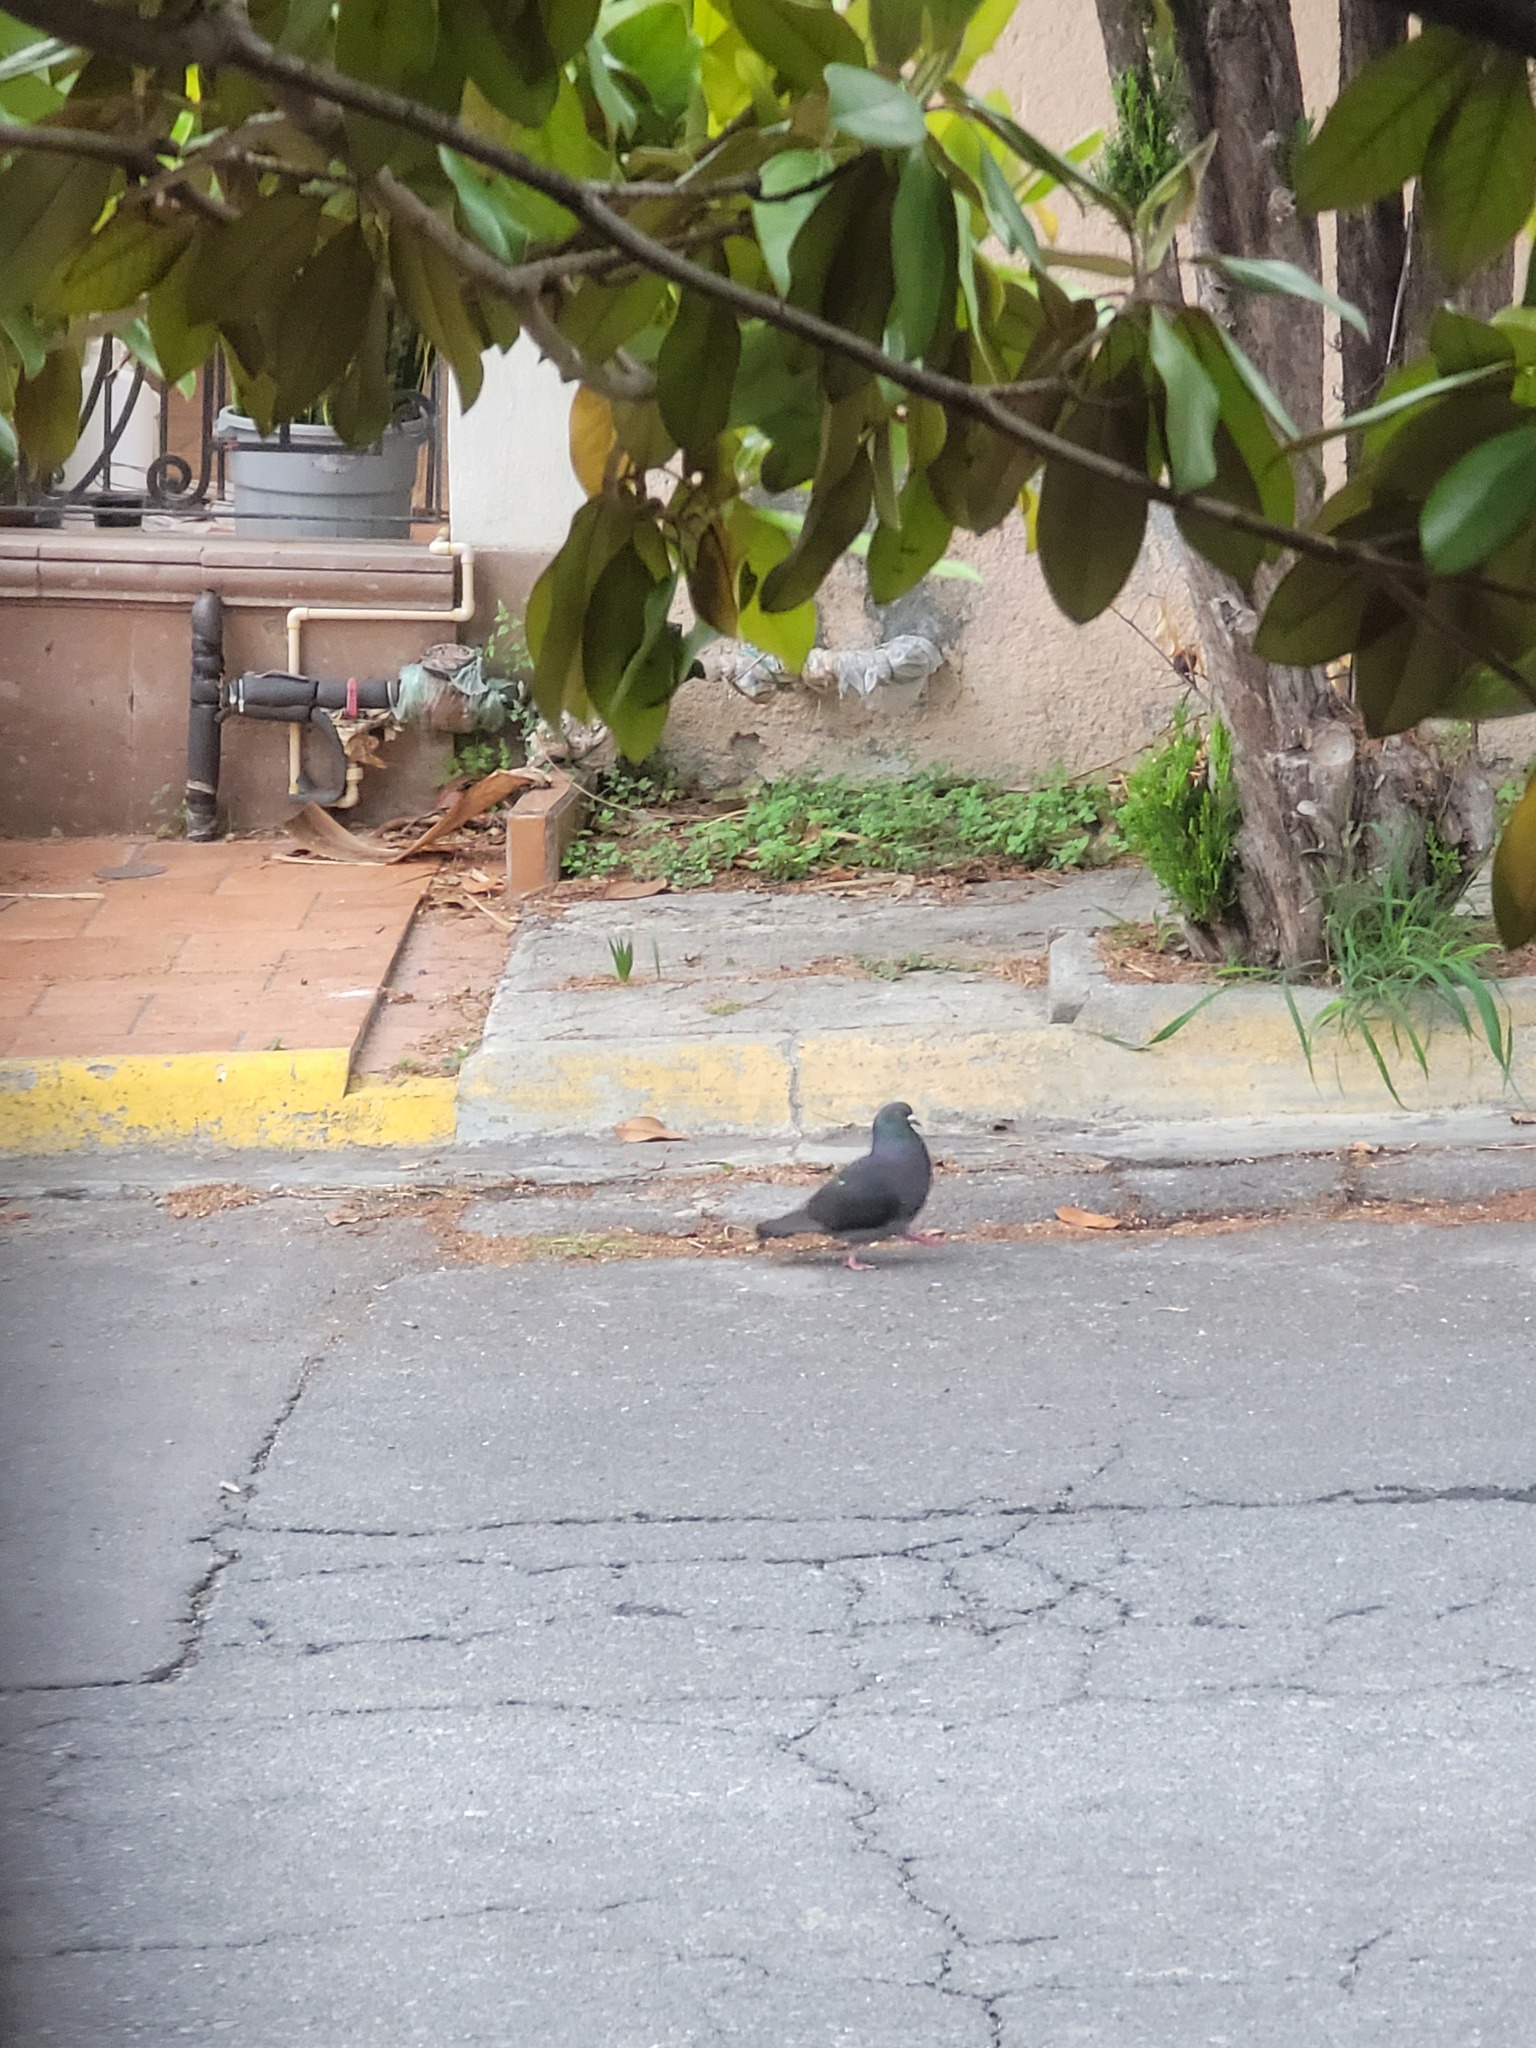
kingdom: Animalia
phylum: Chordata
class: Aves
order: Columbiformes
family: Columbidae
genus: Columba
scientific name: Columba livia
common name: Rock pigeon
